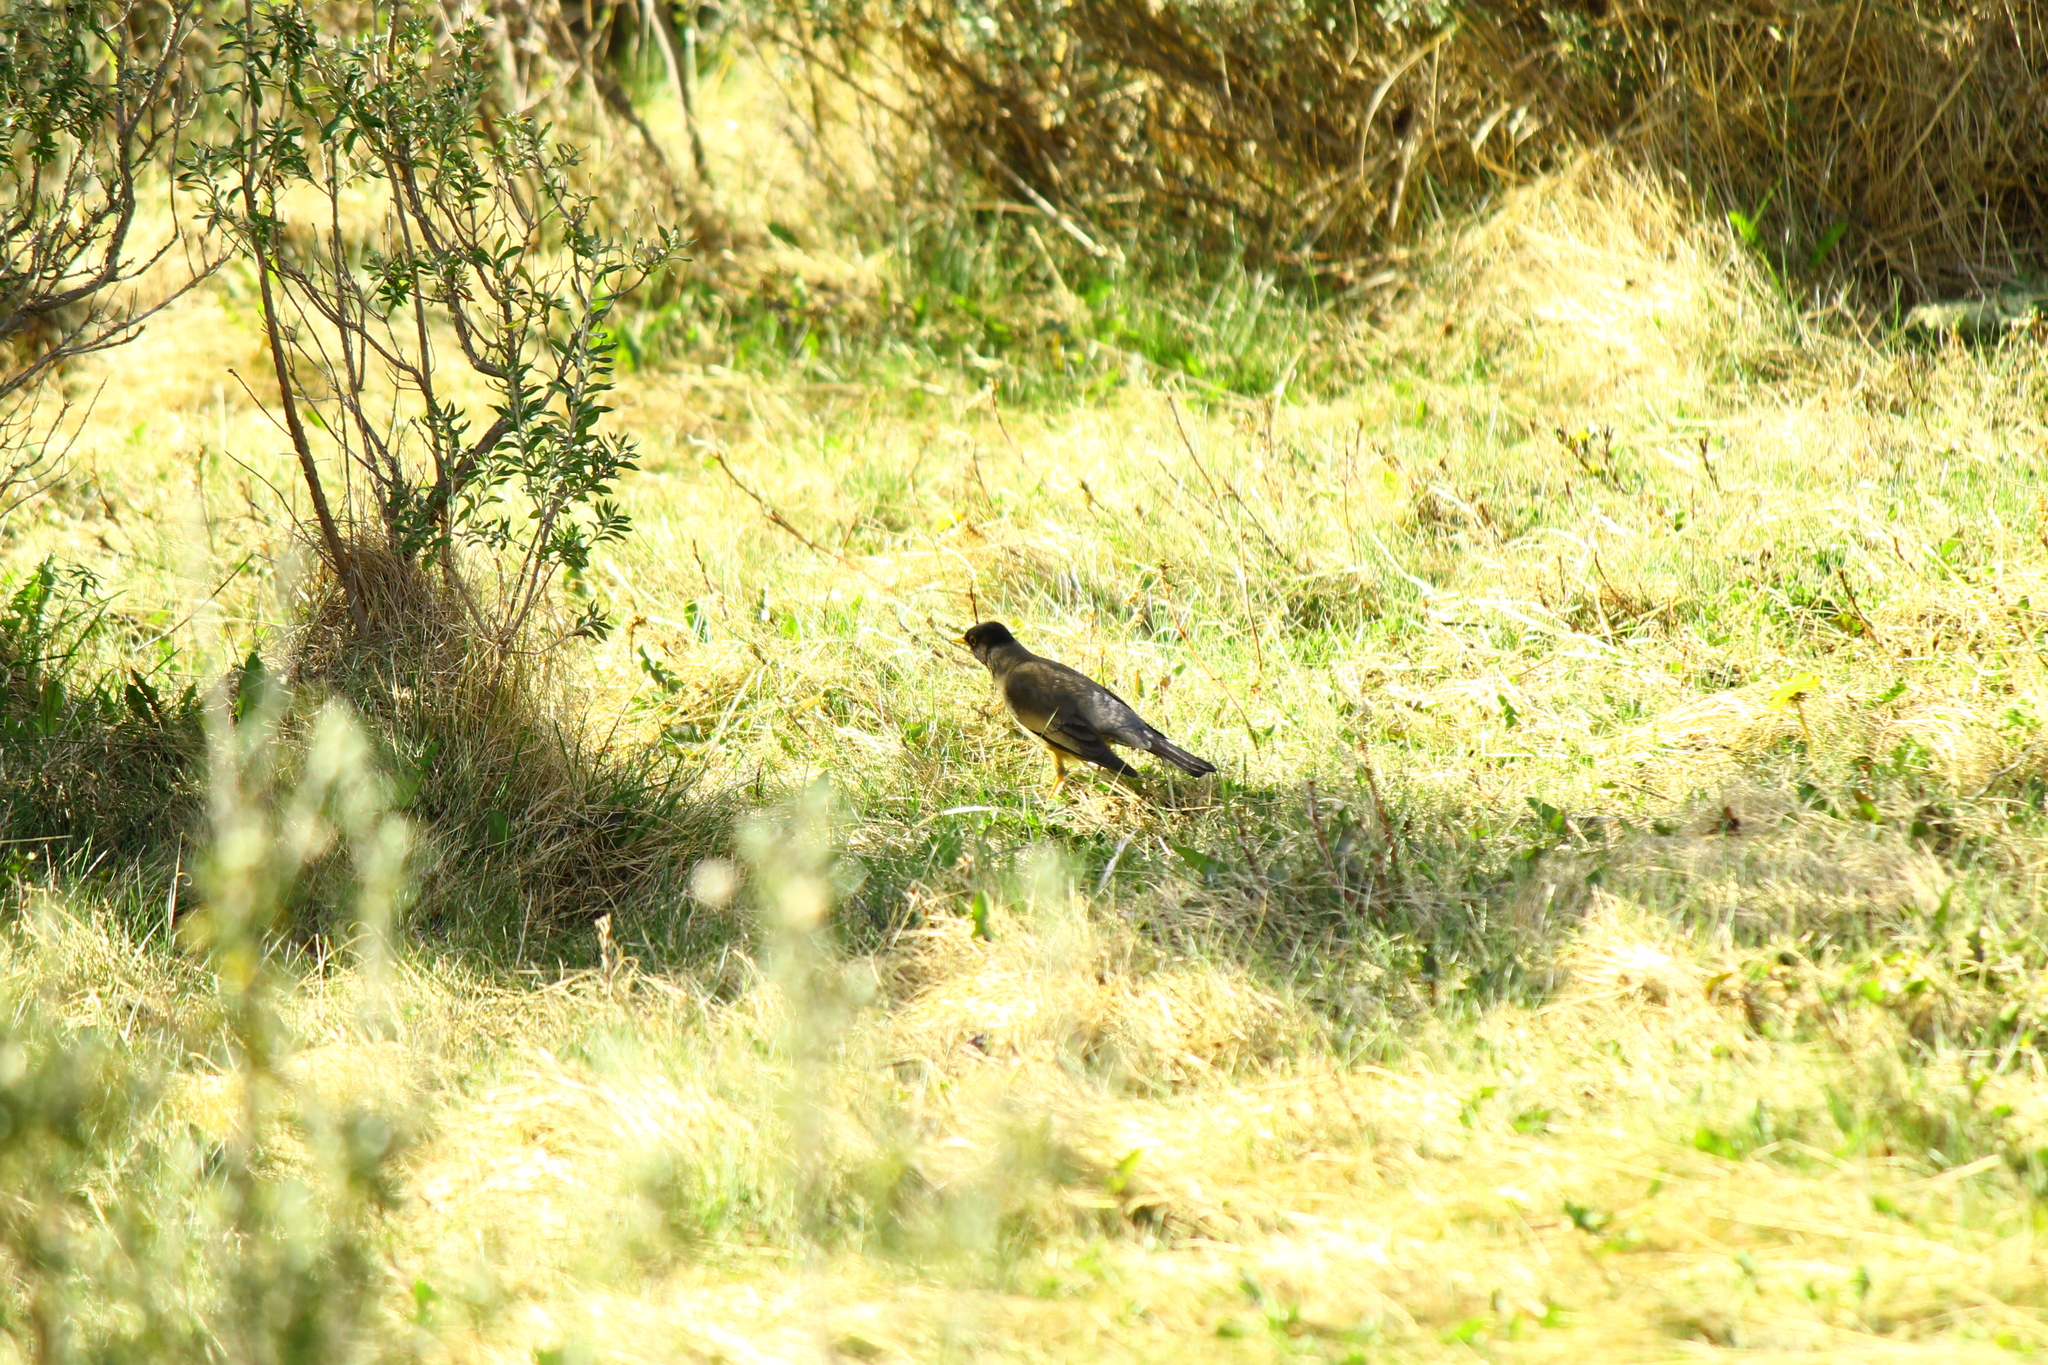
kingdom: Animalia
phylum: Chordata
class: Aves
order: Passeriformes
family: Turdidae
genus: Turdus
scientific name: Turdus falcklandii
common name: Austral thrush
